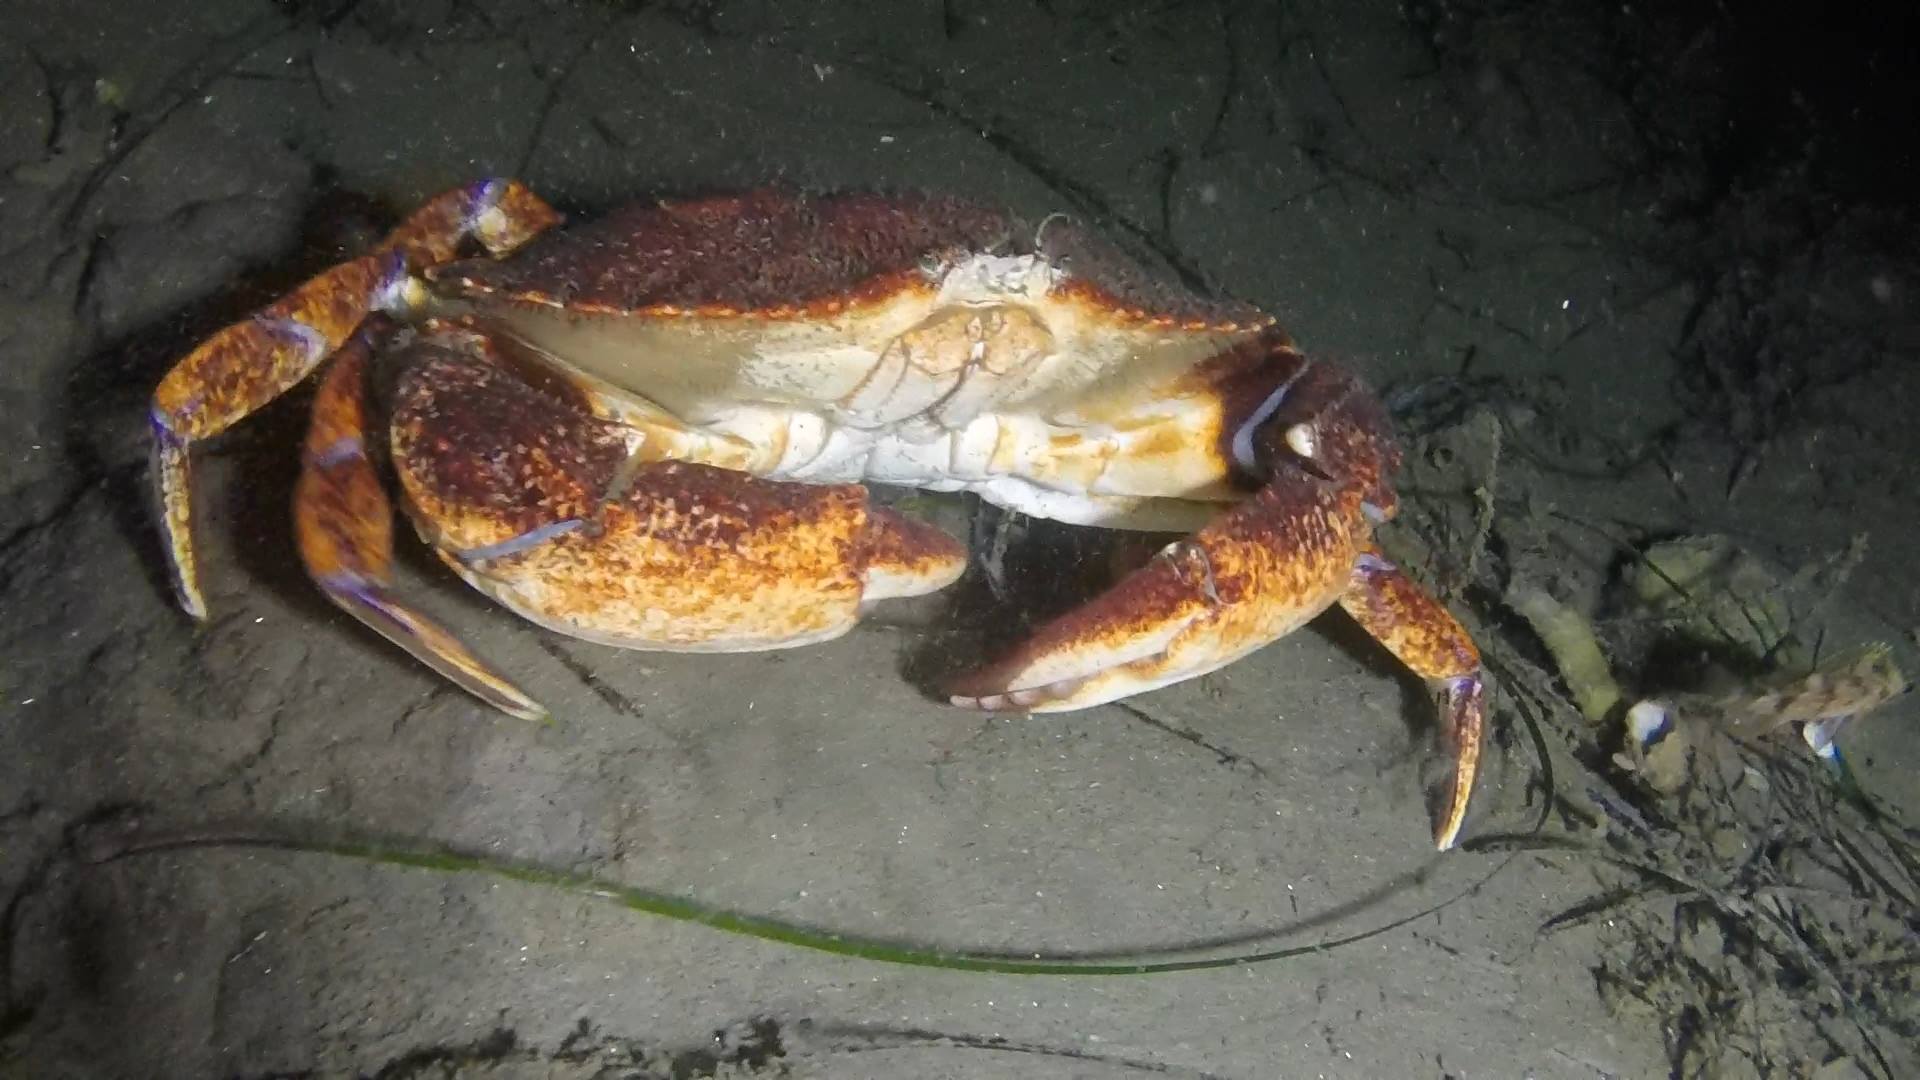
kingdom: Animalia
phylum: Arthropoda
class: Malacostraca
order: Decapoda
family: Cancridae
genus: Cancer
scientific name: Cancer productus
